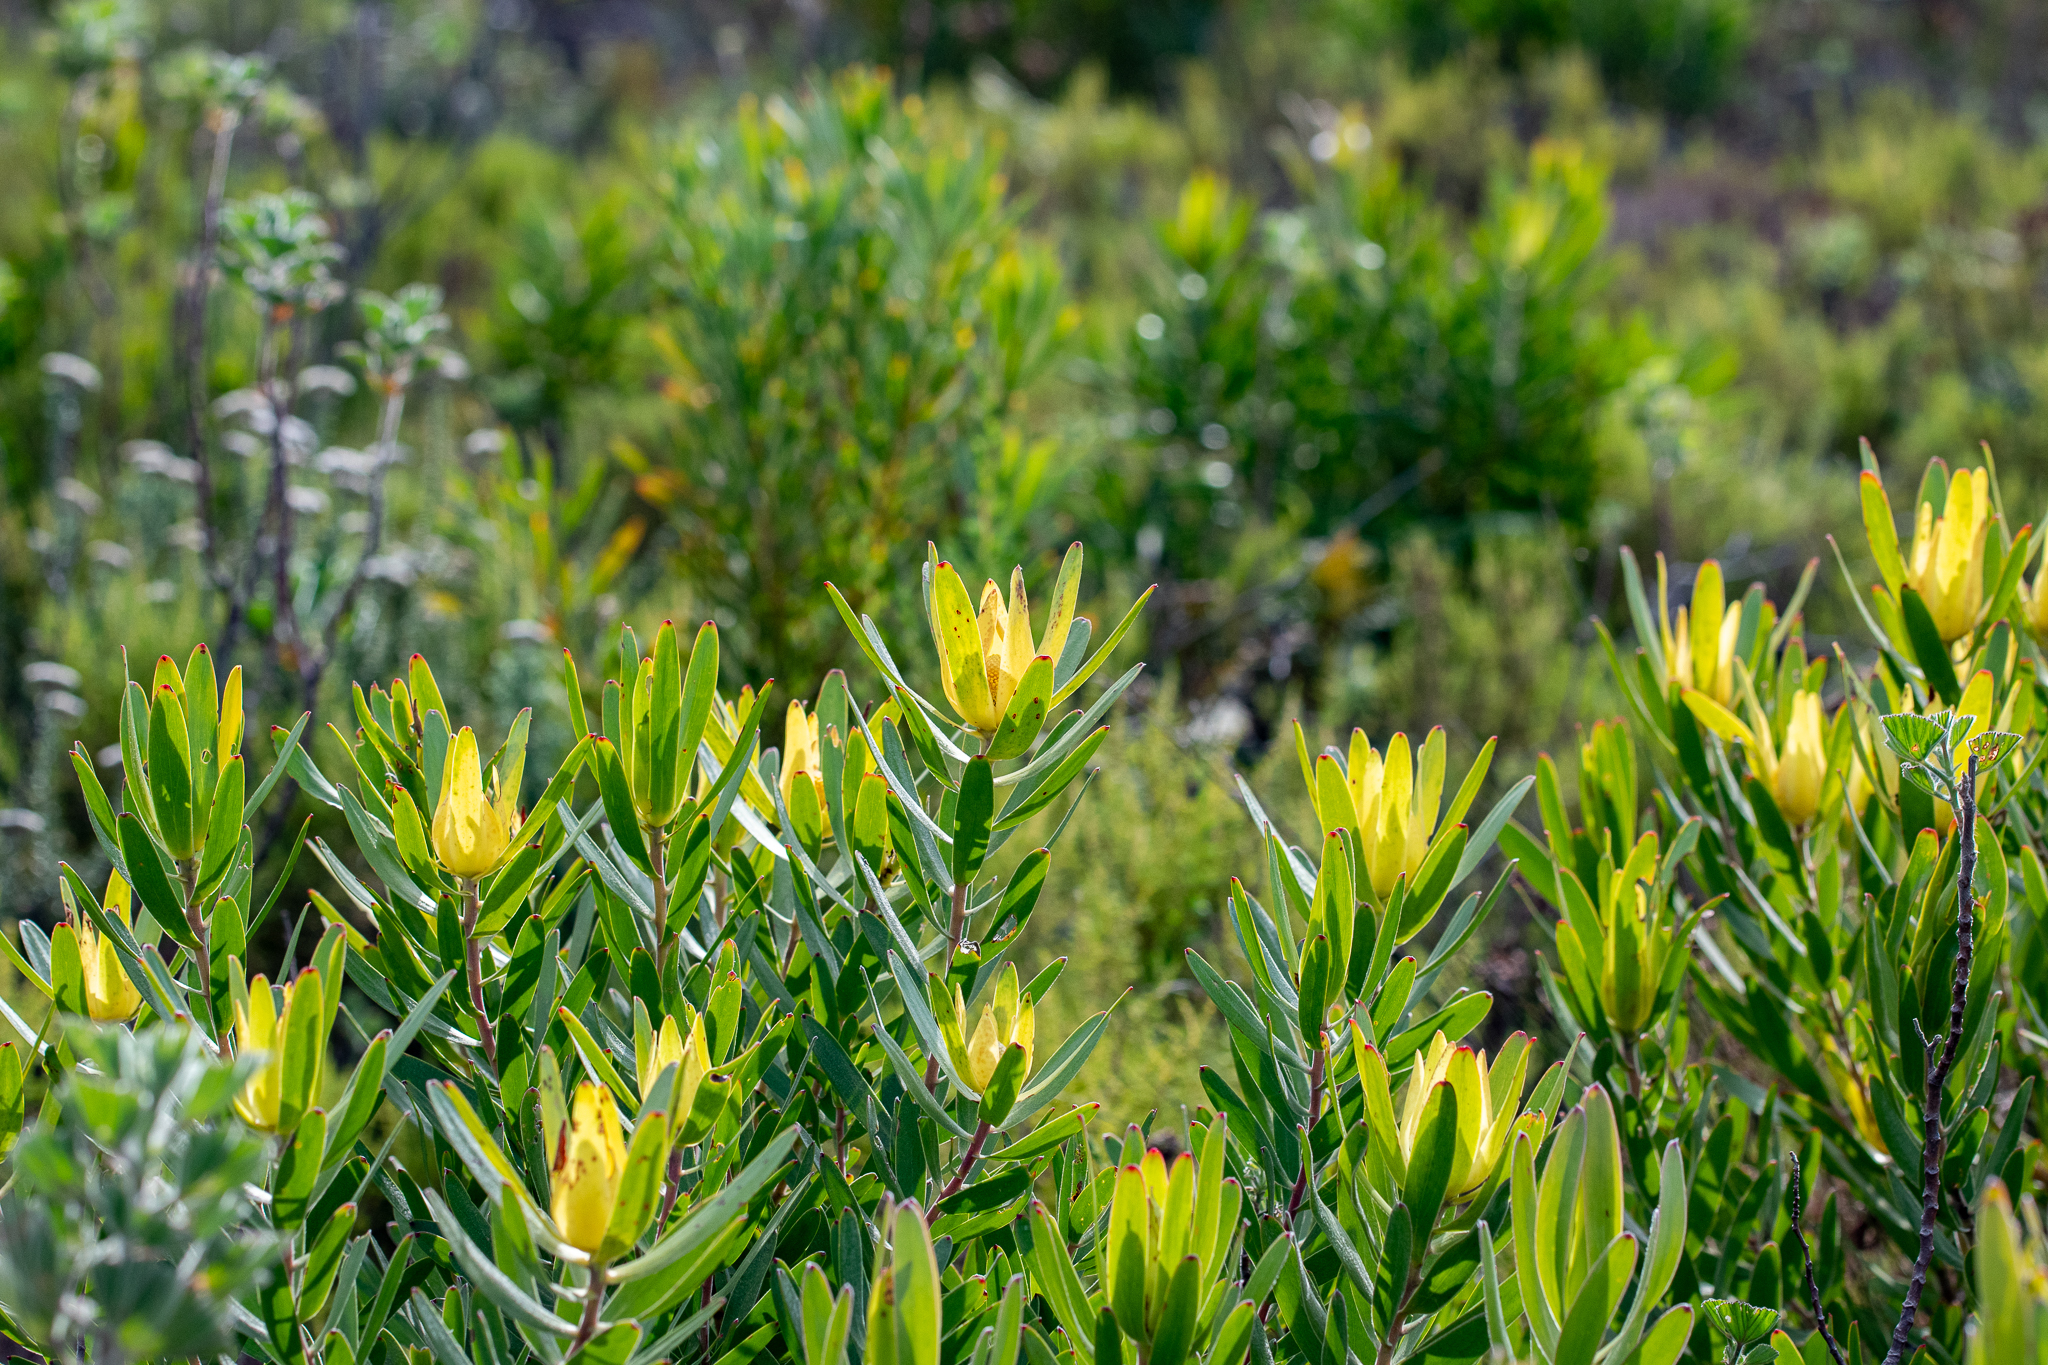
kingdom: Plantae
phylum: Tracheophyta
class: Magnoliopsida
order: Proteales
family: Proteaceae
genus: Leucadendron
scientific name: Leucadendron laureolum
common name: Golden sunshinebush
